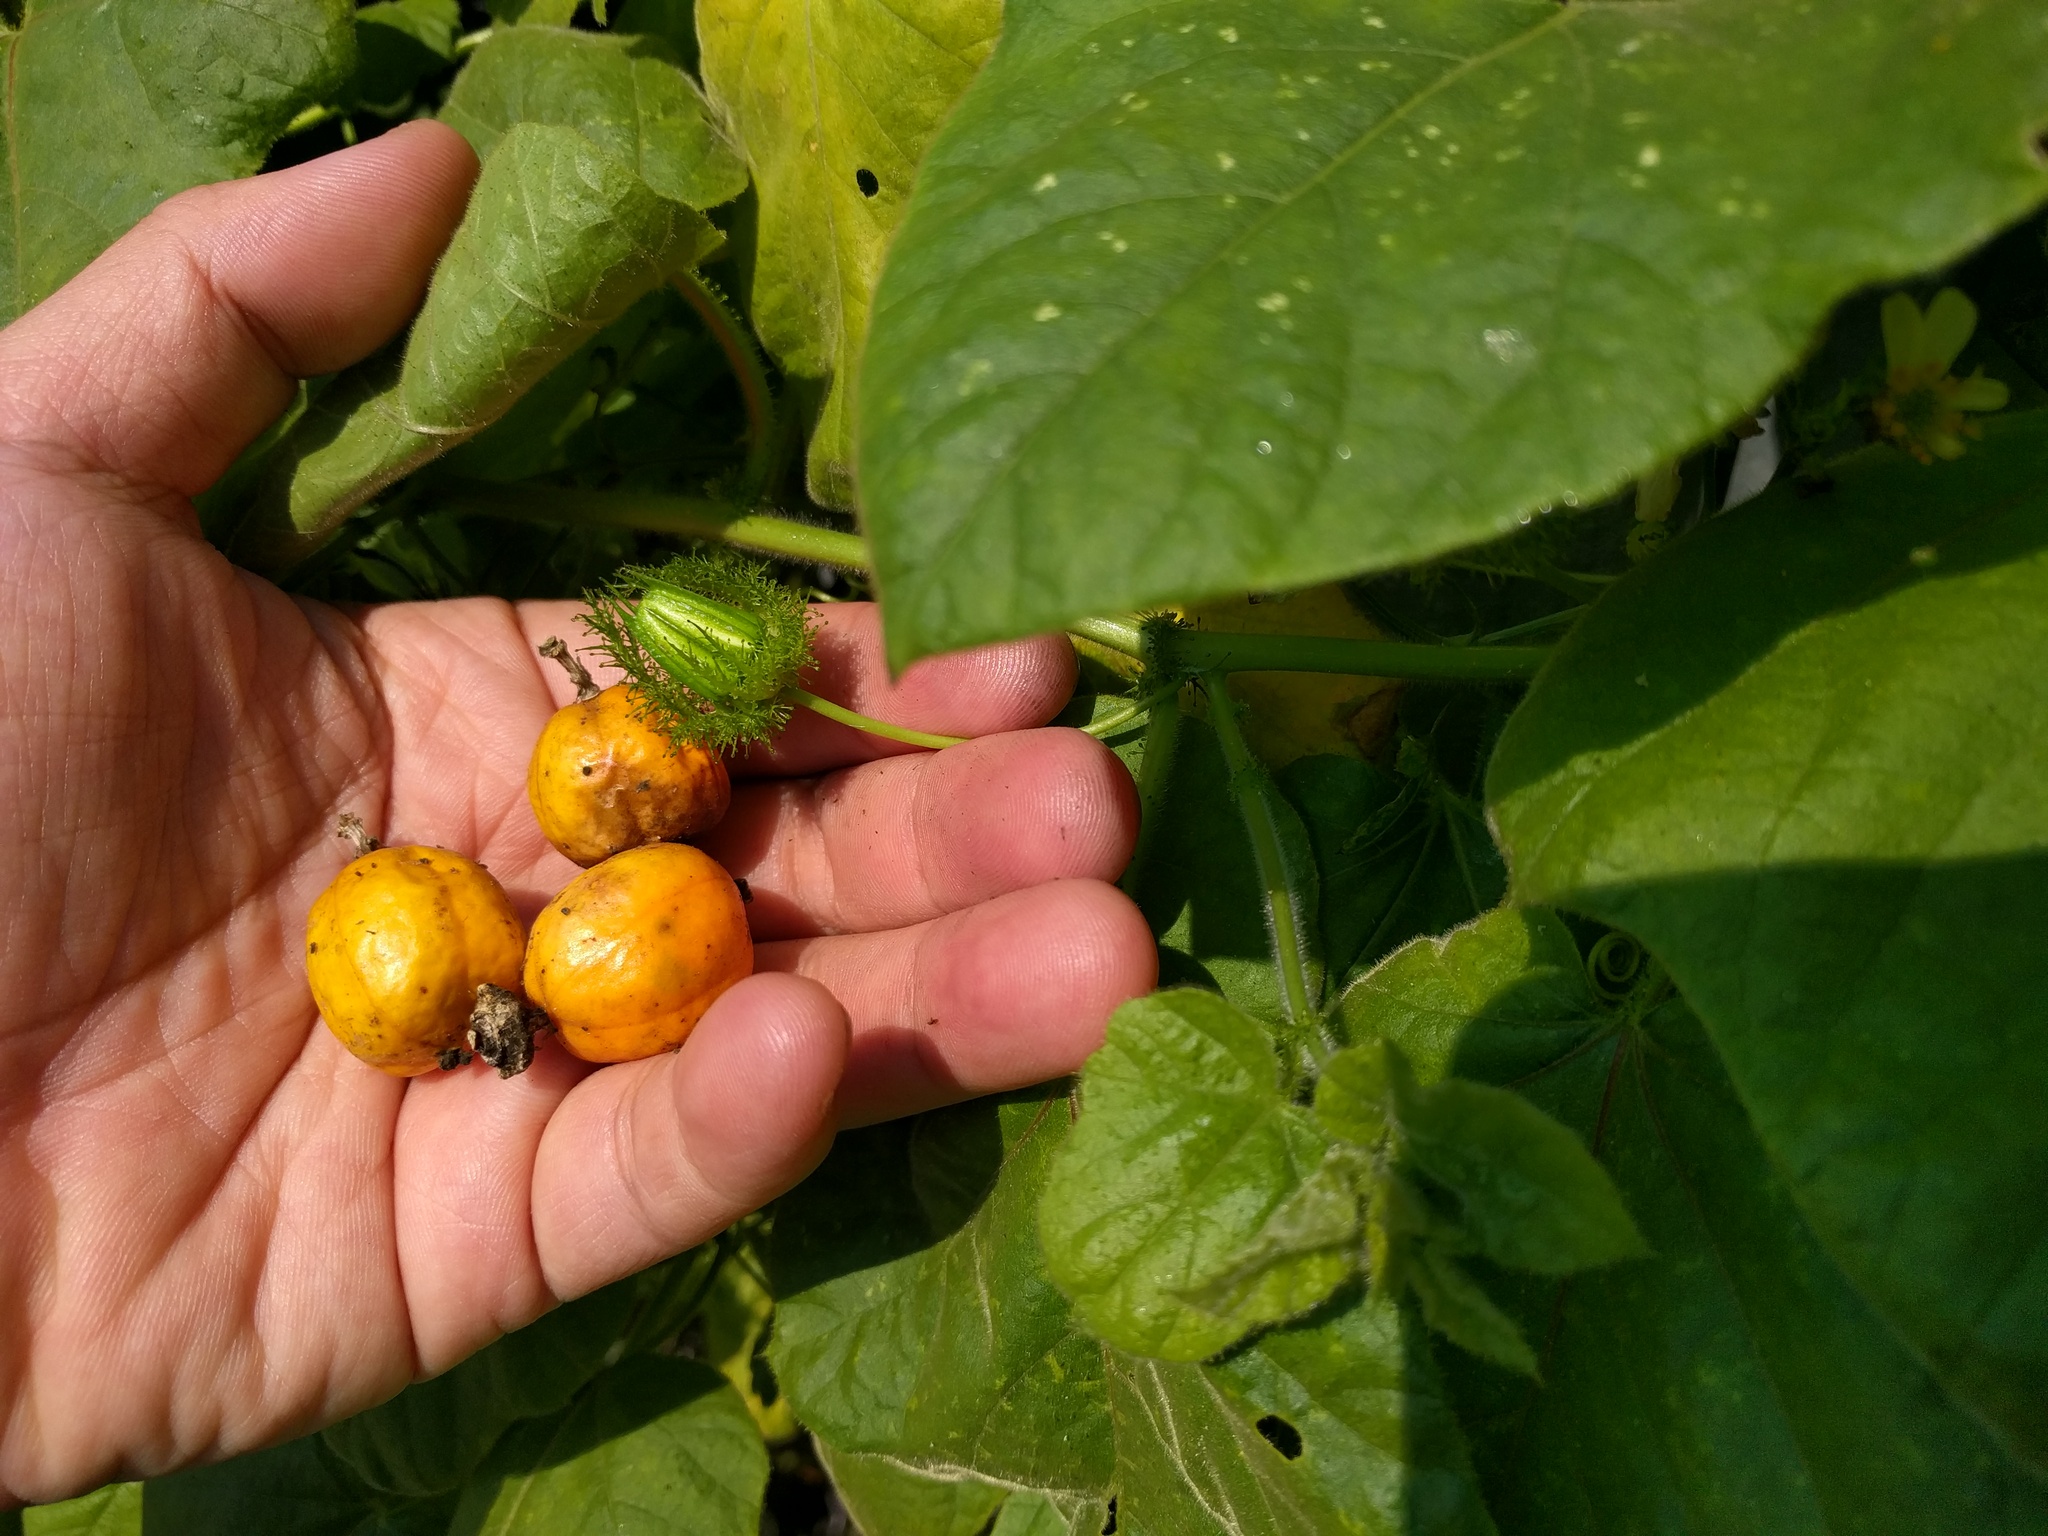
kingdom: Plantae
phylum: Tracheophyta
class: Magnoliopsida
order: Malpighiales
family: Passifloraceae
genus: Passiflora
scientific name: Passiflora vesicaria
